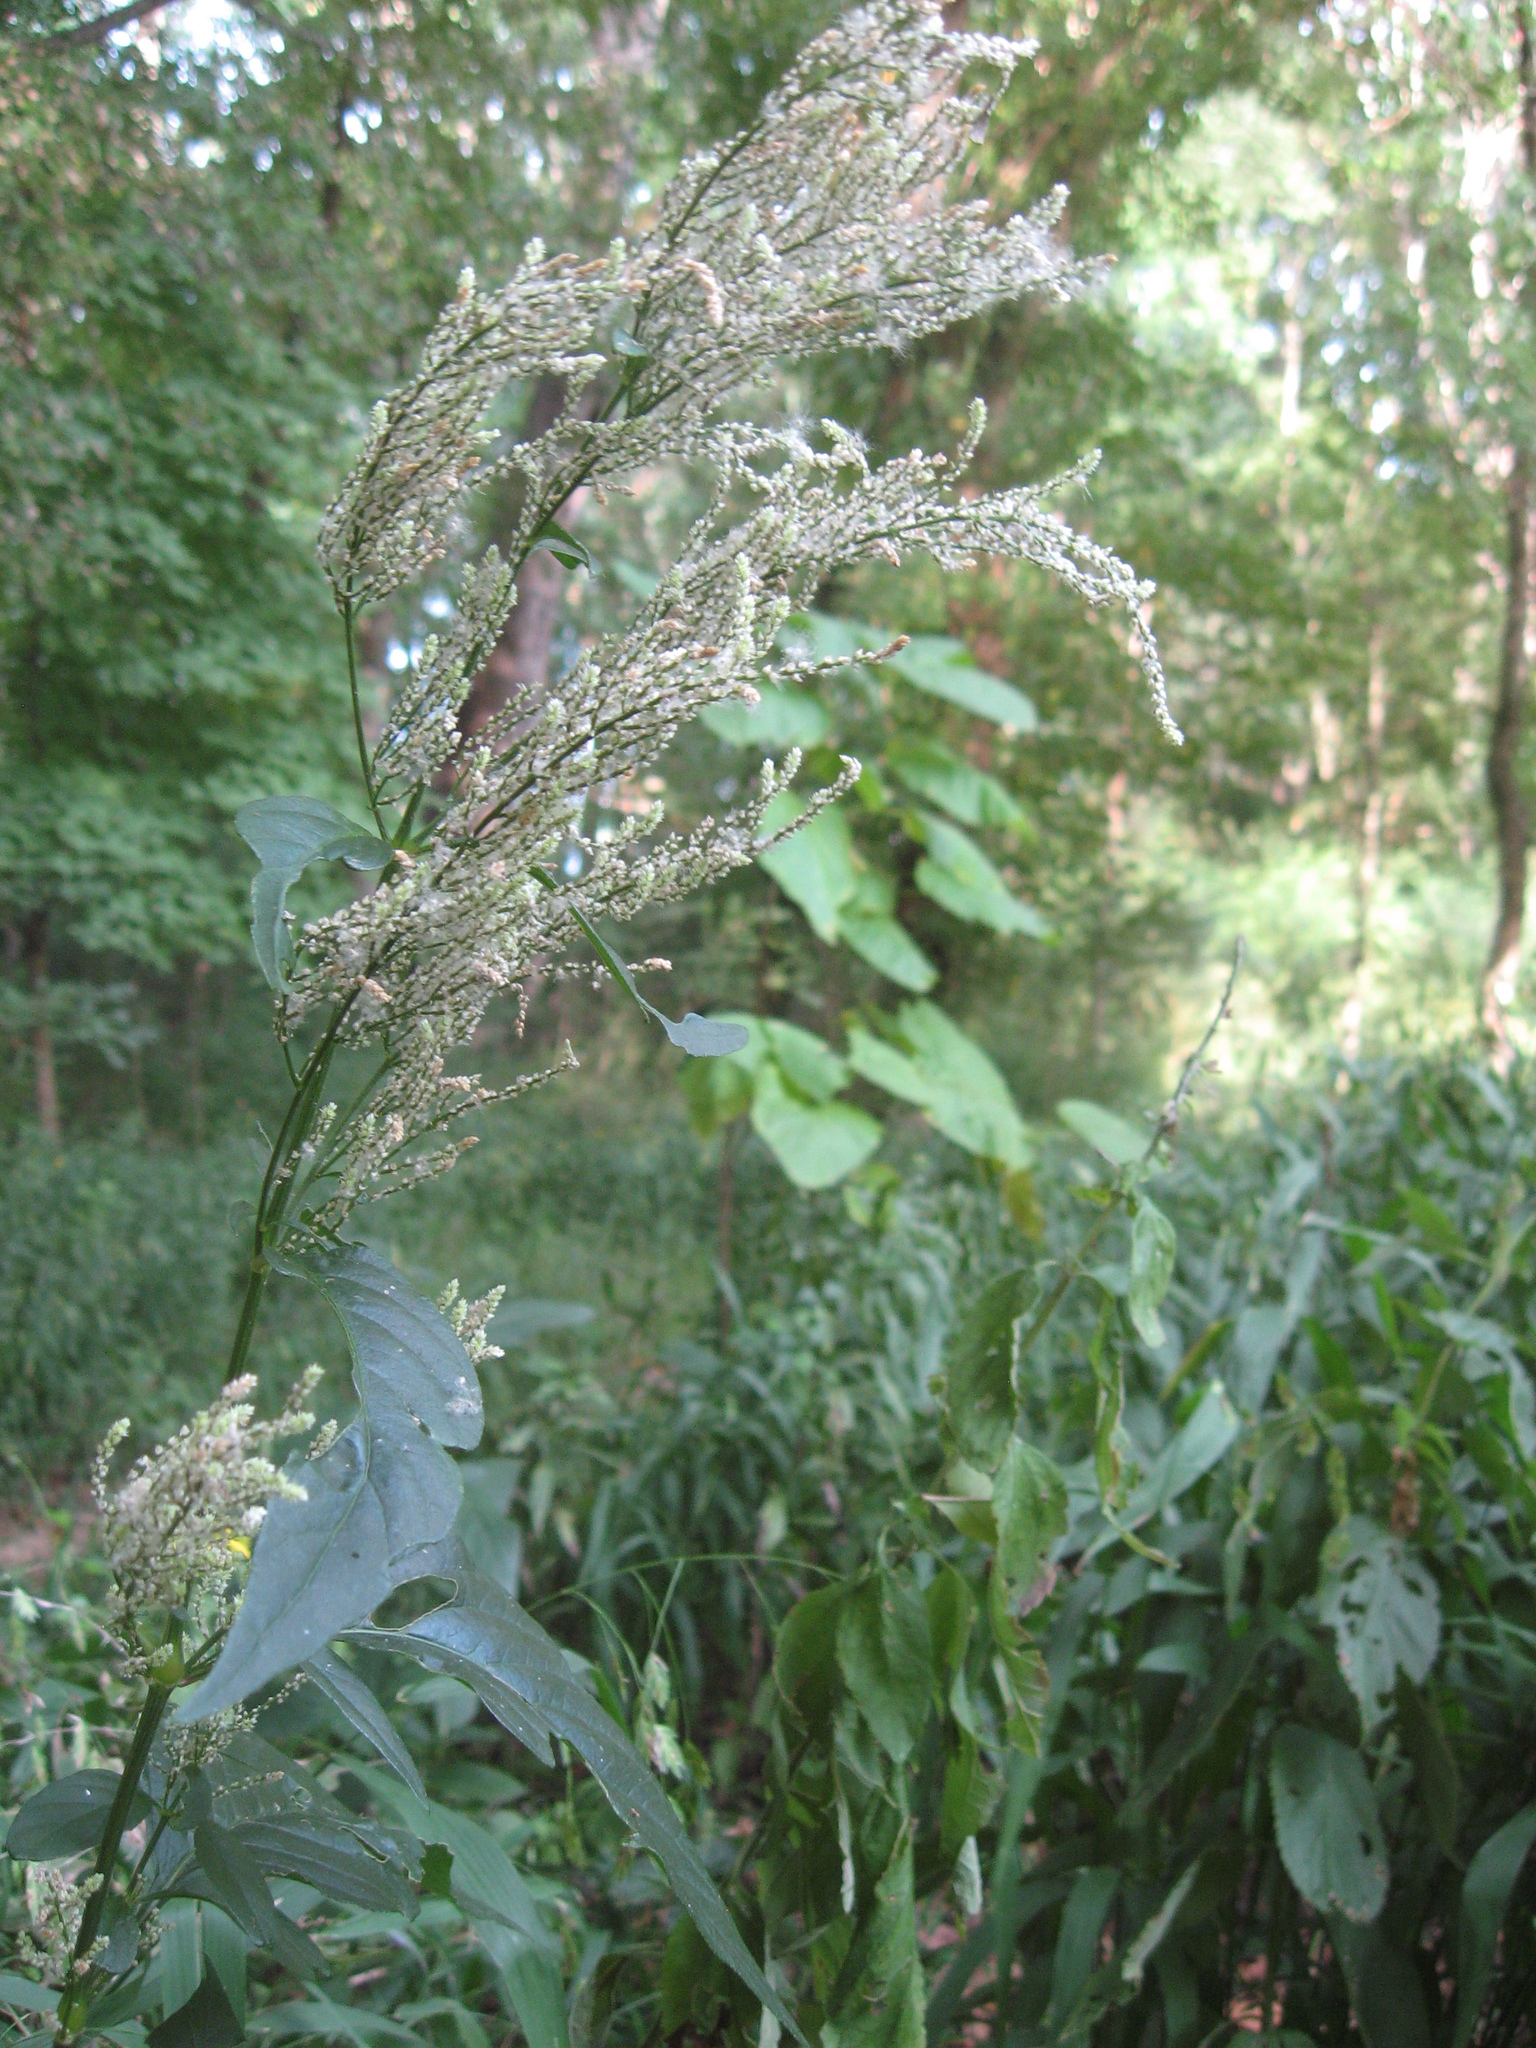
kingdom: Plantae
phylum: Tracheophyta
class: Magnoliopsida
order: Caryophyllales
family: Amaranthaceae
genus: Iresine
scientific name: Iresine rhizomatosa
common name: Juda's-bush
